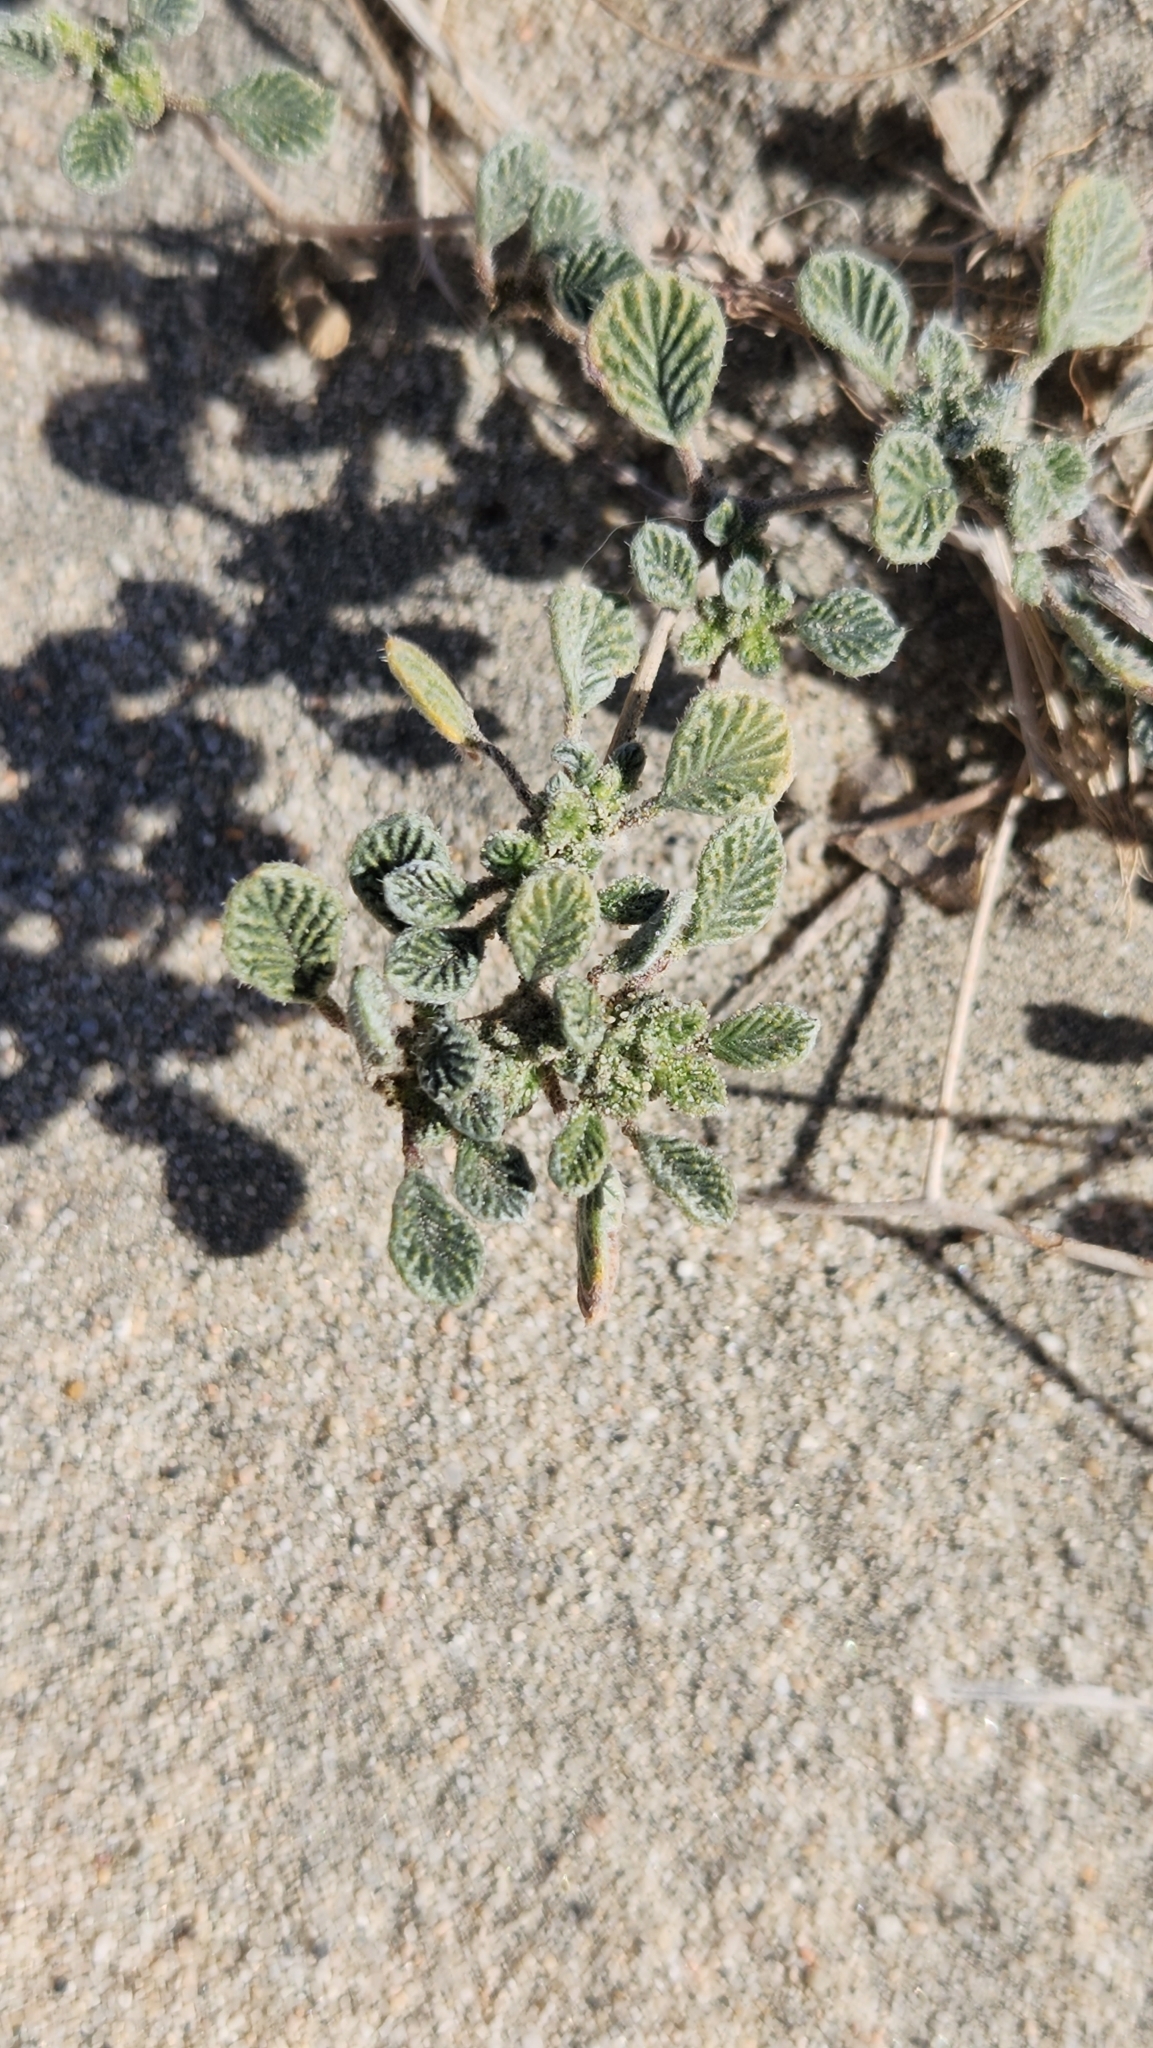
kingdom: Plantae
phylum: Tracheophyta
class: Magnoliopsida
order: Boraginales
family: Ehretiaceae
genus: Tiquilia
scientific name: Tiquilia plicata
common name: Fan-leaf tiquilia
